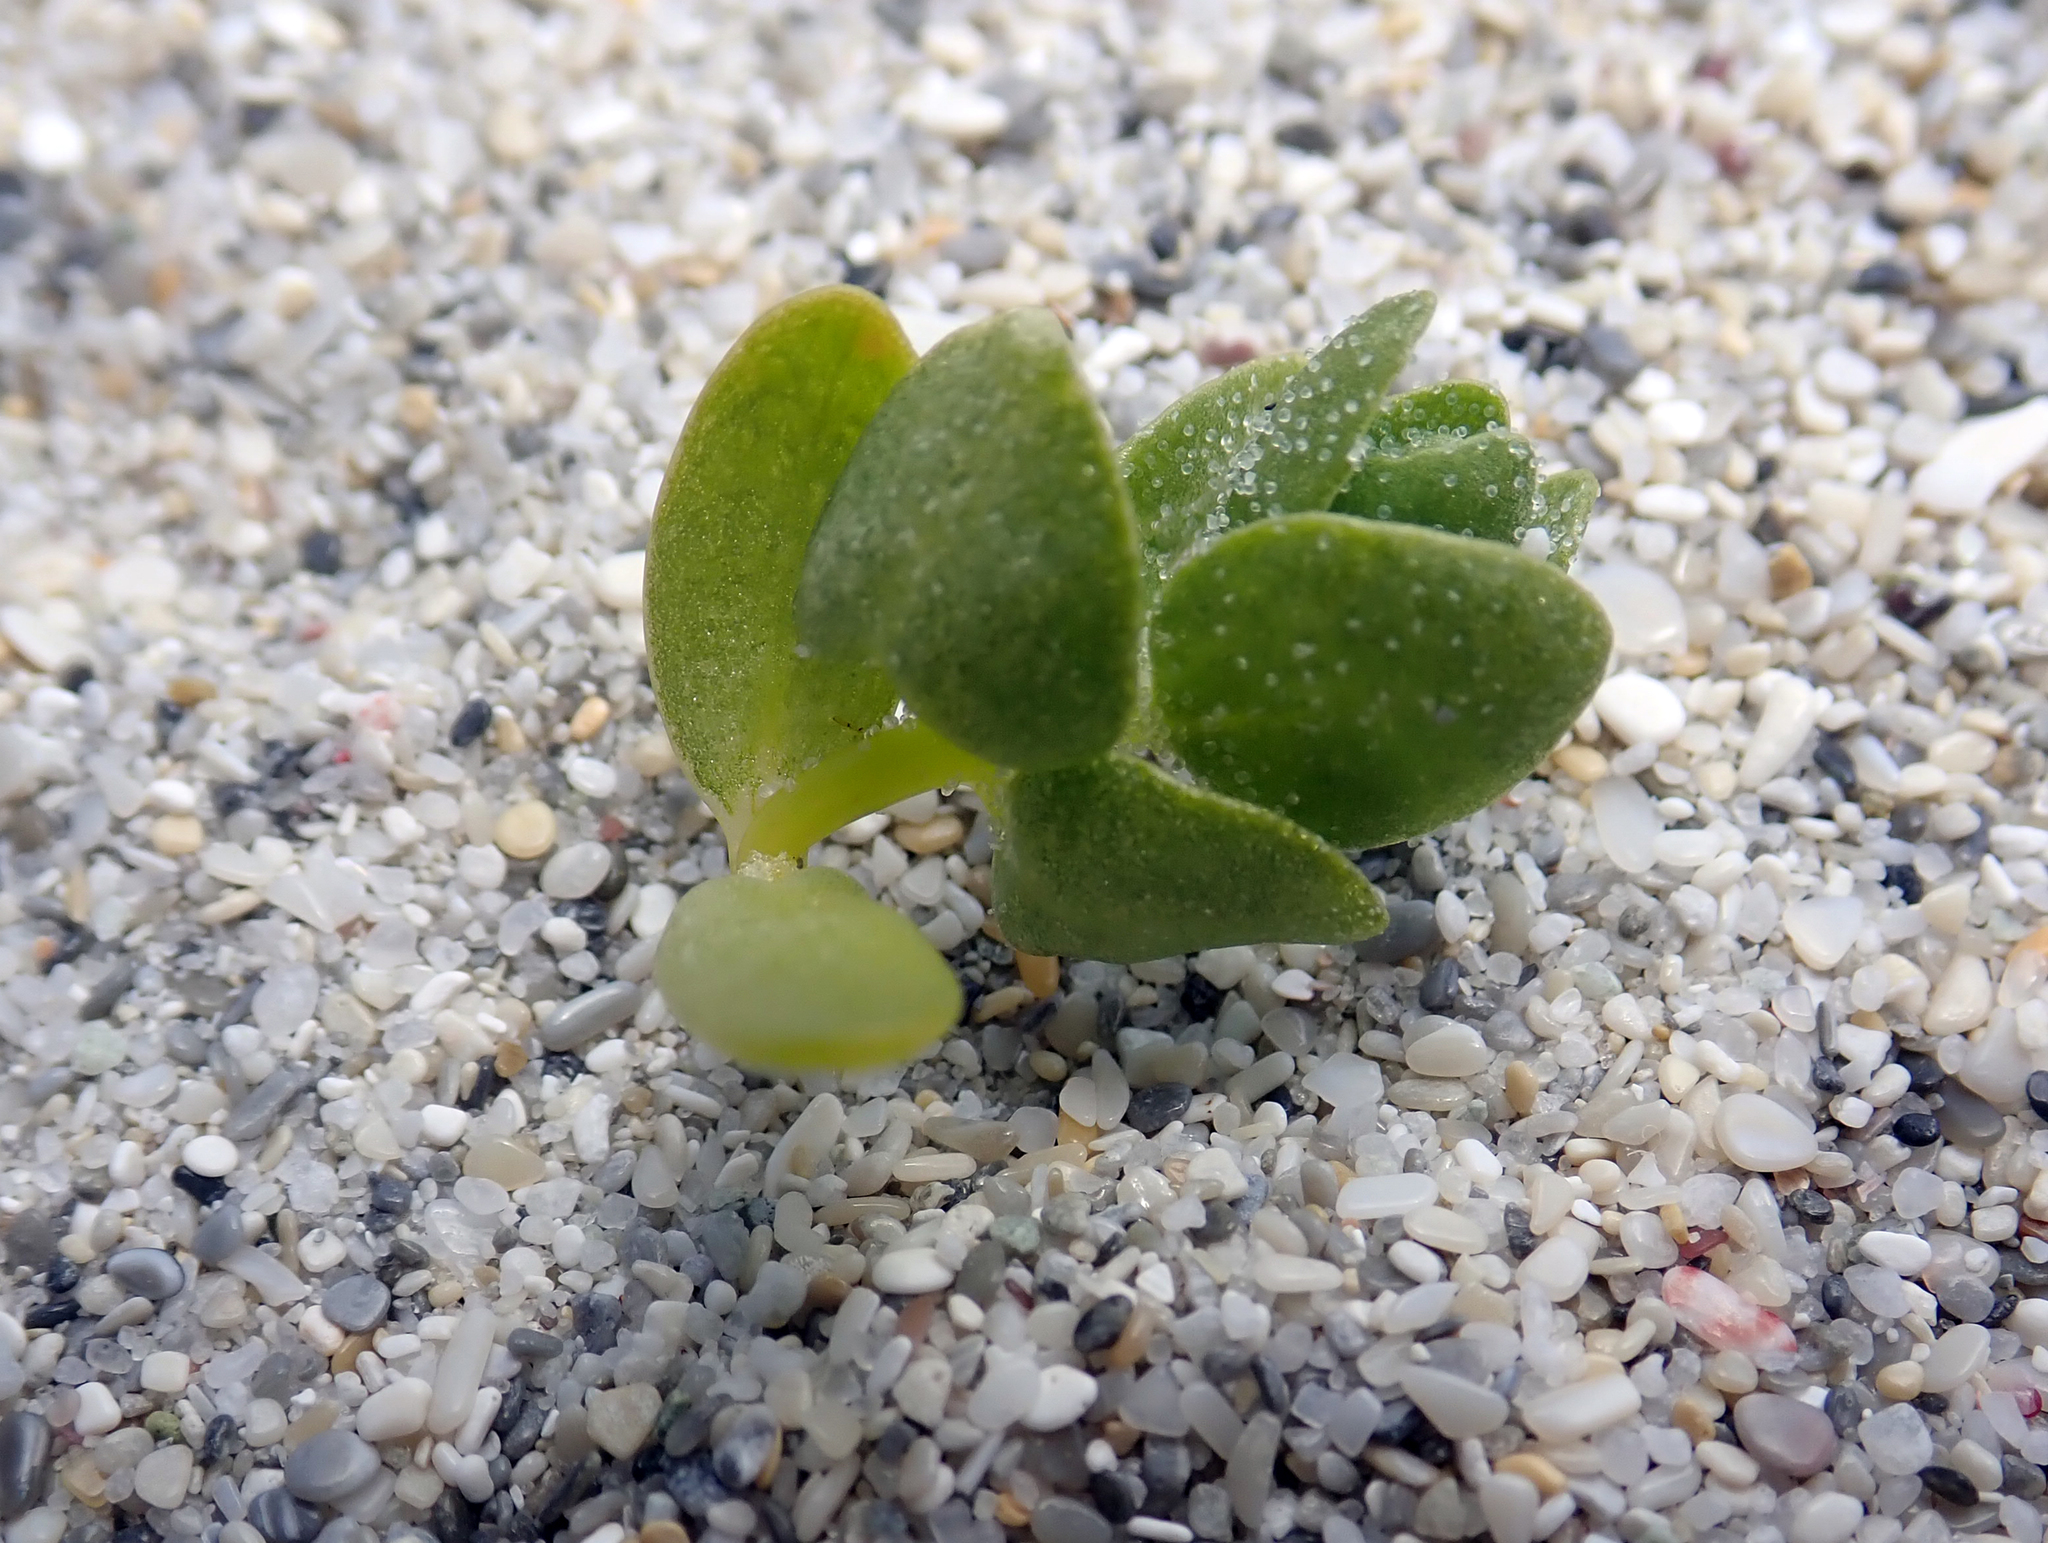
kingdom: Plantae
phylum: Tracheophyta
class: Magnoliopsida
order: Caryophyllales
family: Amaranthaceae
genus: Atriplex
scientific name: Atriplex billardierei
